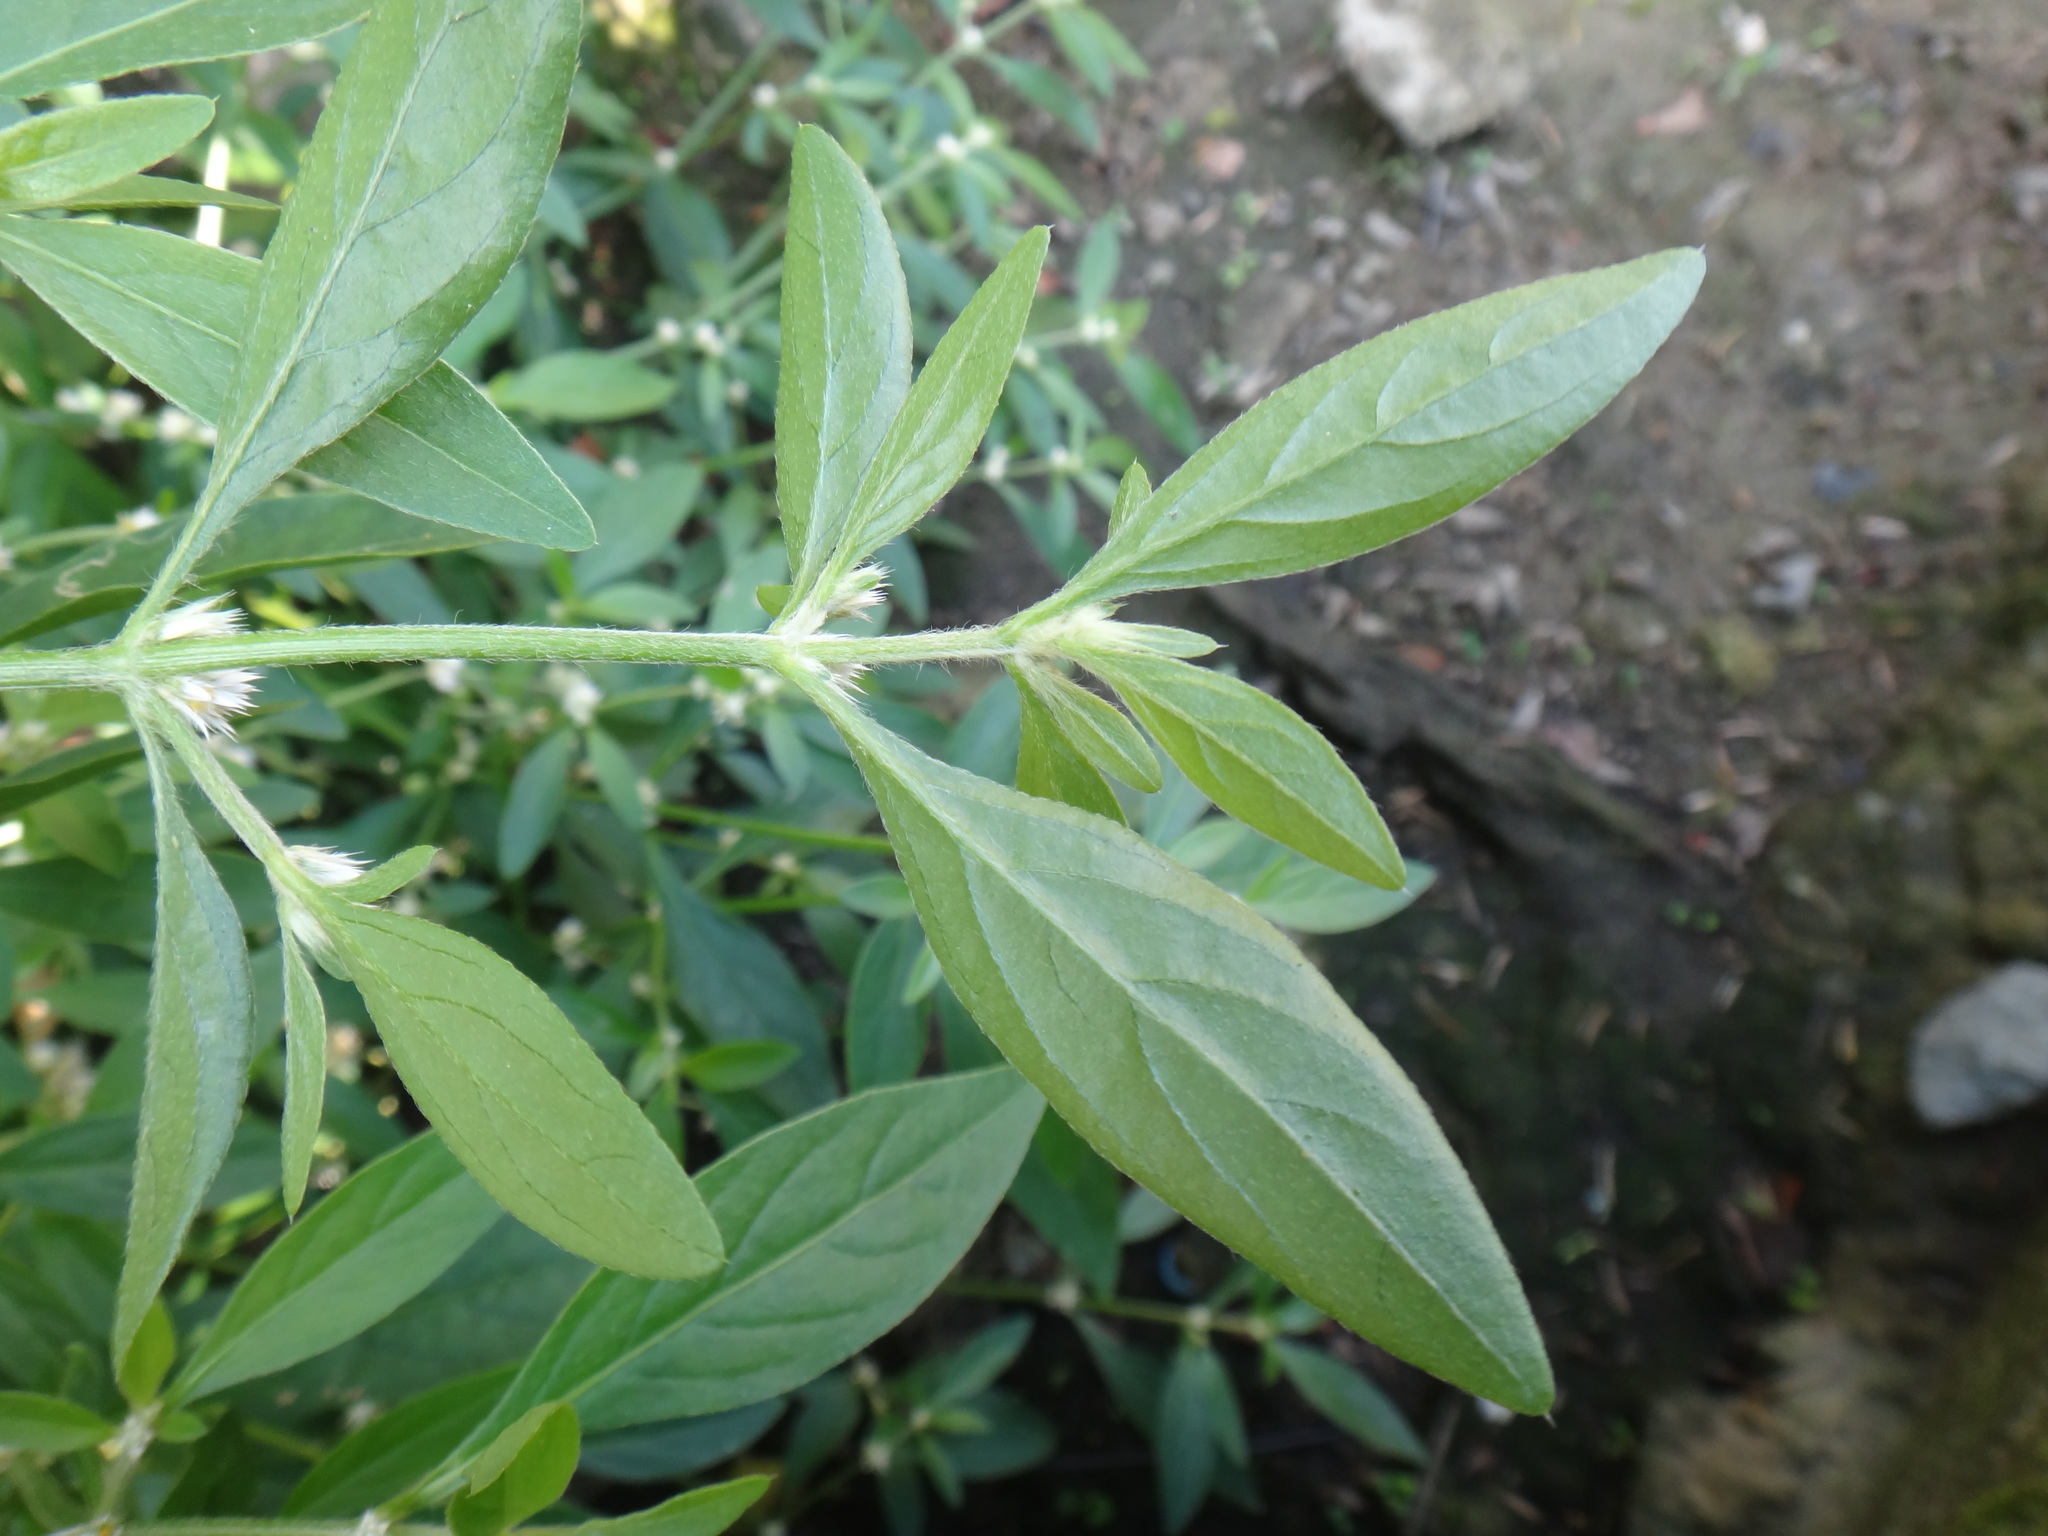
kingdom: Plantae
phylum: Tracheophyta
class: Magnoliopsida
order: Caryophyllales
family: Amaranthaceae
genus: Alternanthera
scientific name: Alternanthera bettzickiana
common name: Calico-plant
